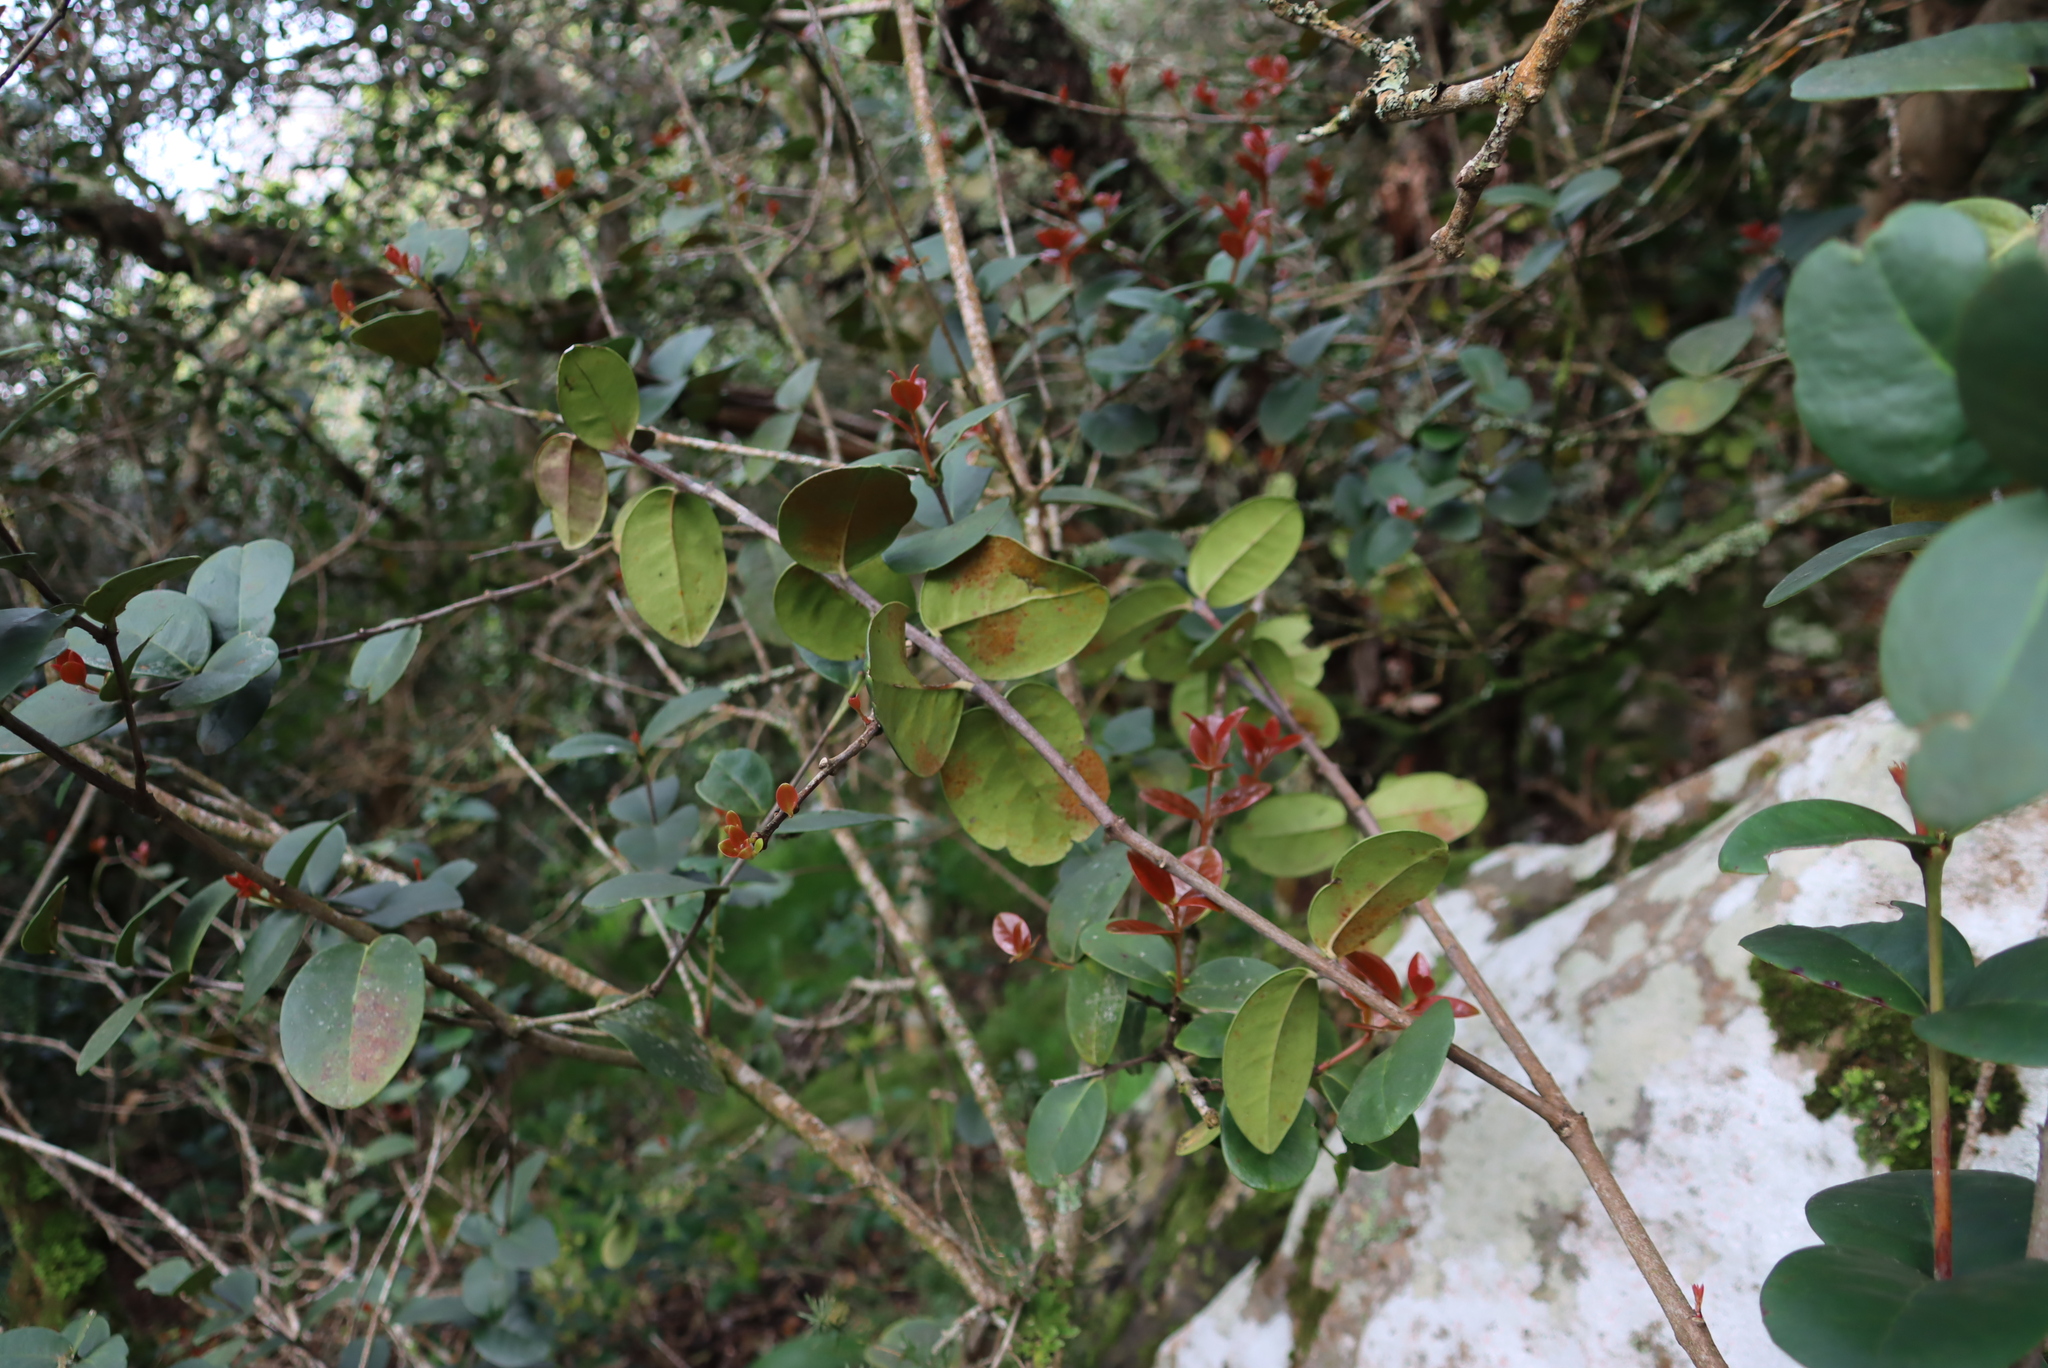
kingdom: Plantae
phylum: Tracheophyta
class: Magnoliopsida
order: Celastrales
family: Celastraceae
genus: Maurocenia
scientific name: Maurocenia frangula
